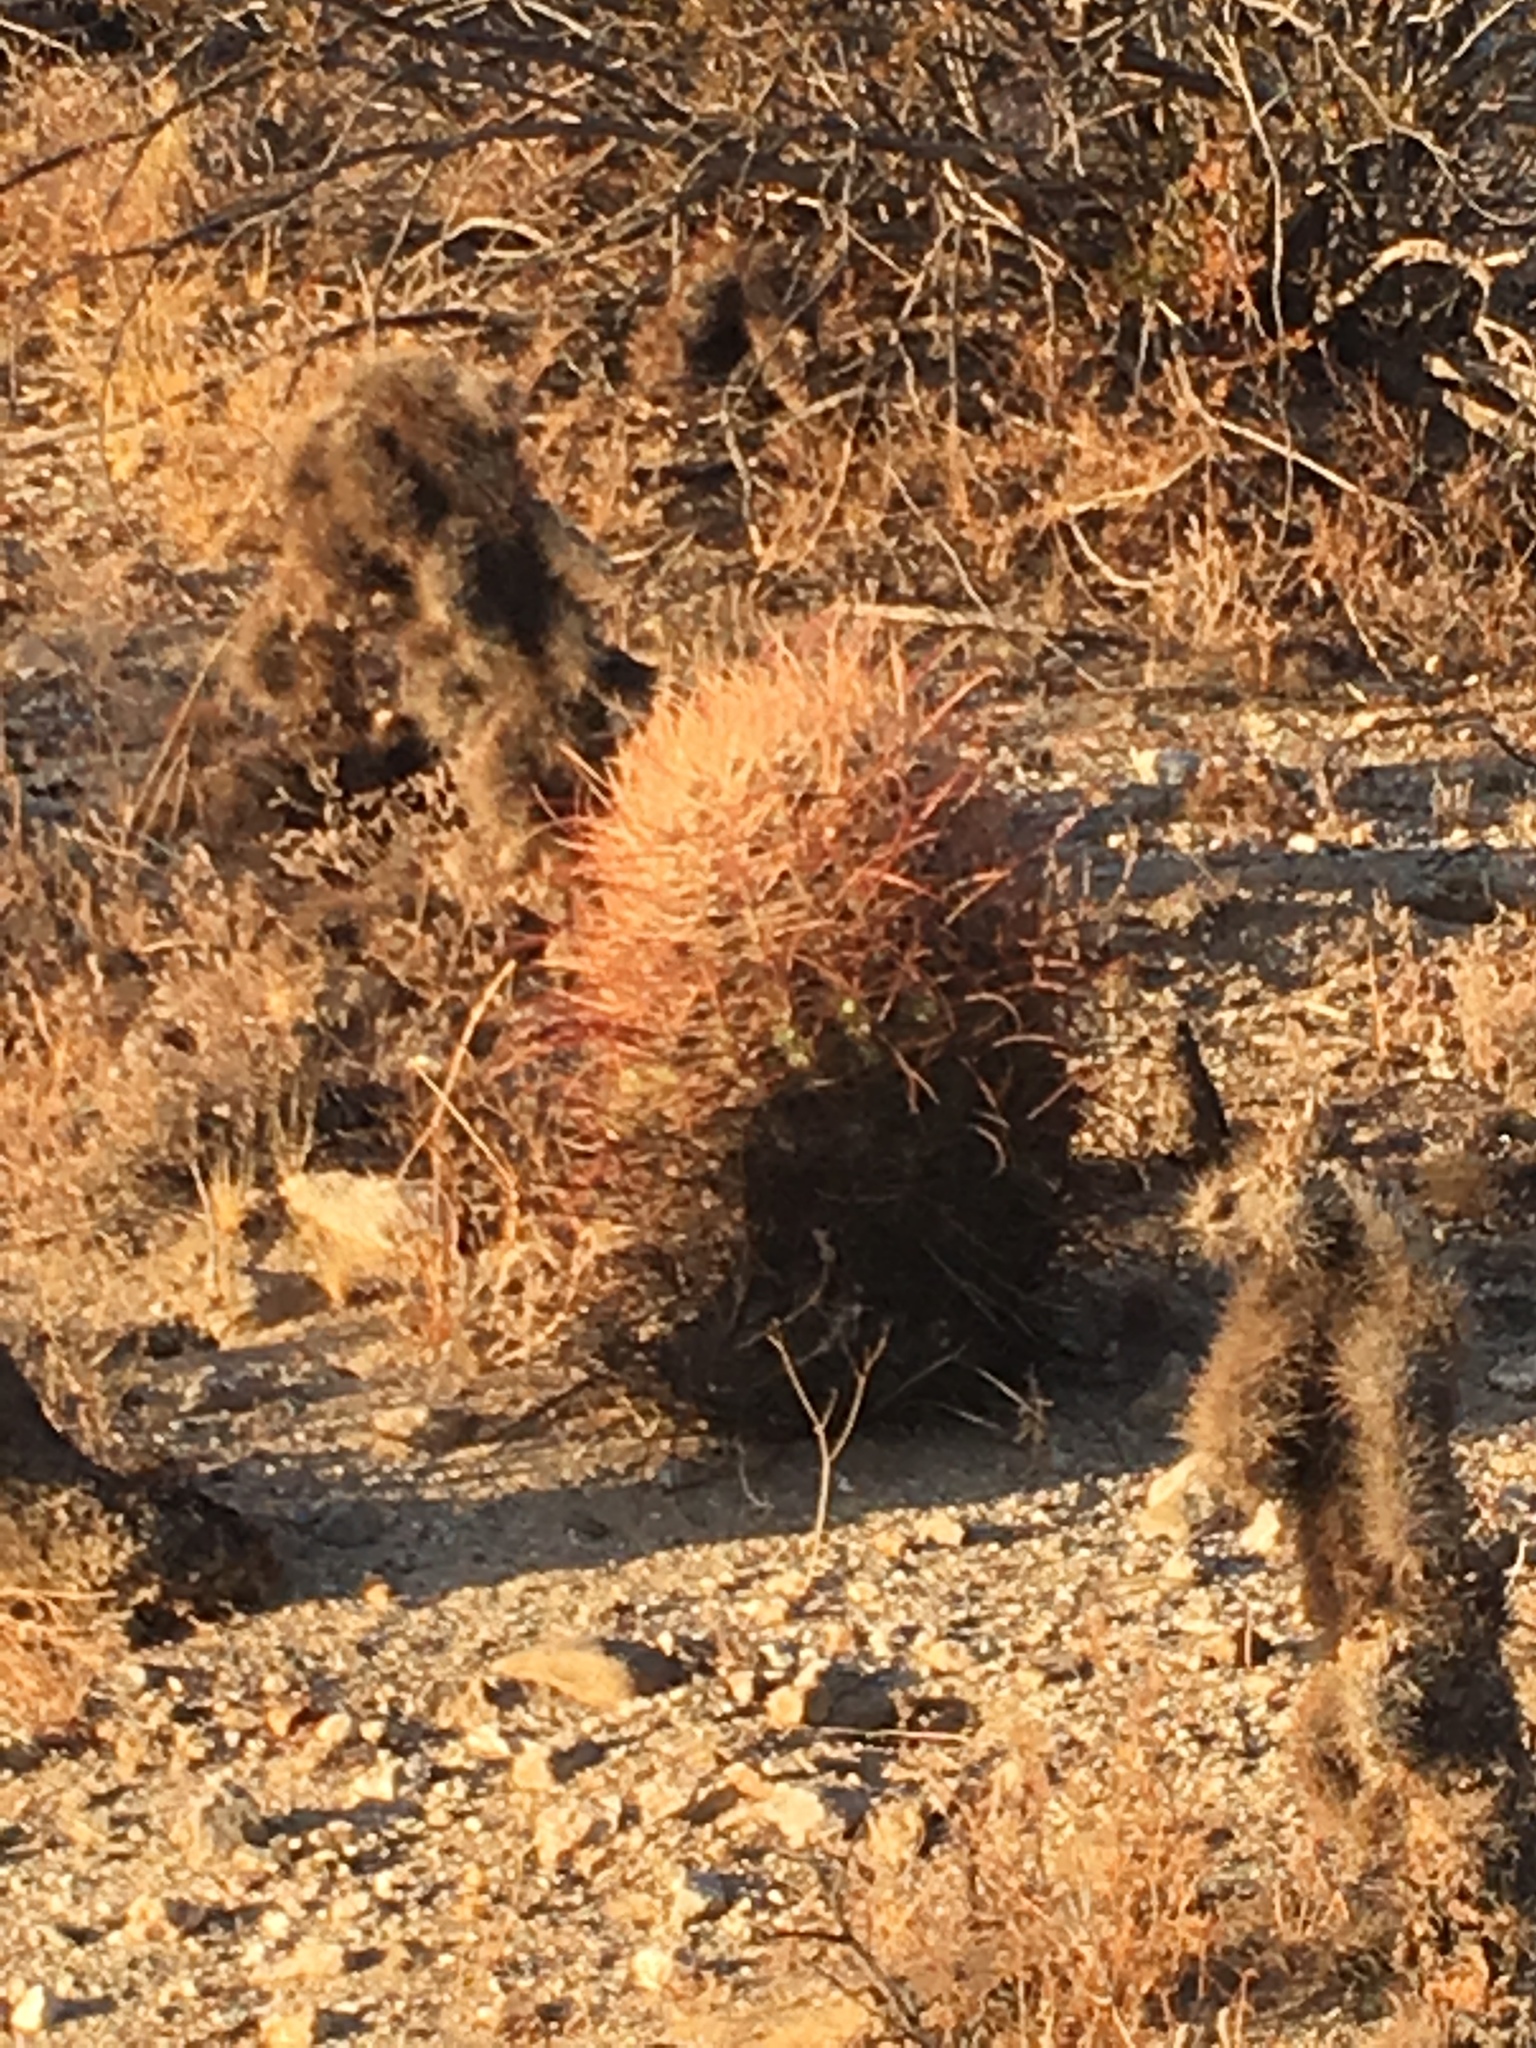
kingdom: Plantae
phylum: Tracheophyta
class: Magnoliopsida
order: Caryophyllales
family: Cactaceae
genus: Ferocactus
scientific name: Ferocactus cylindraceus
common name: California barrel cactus
